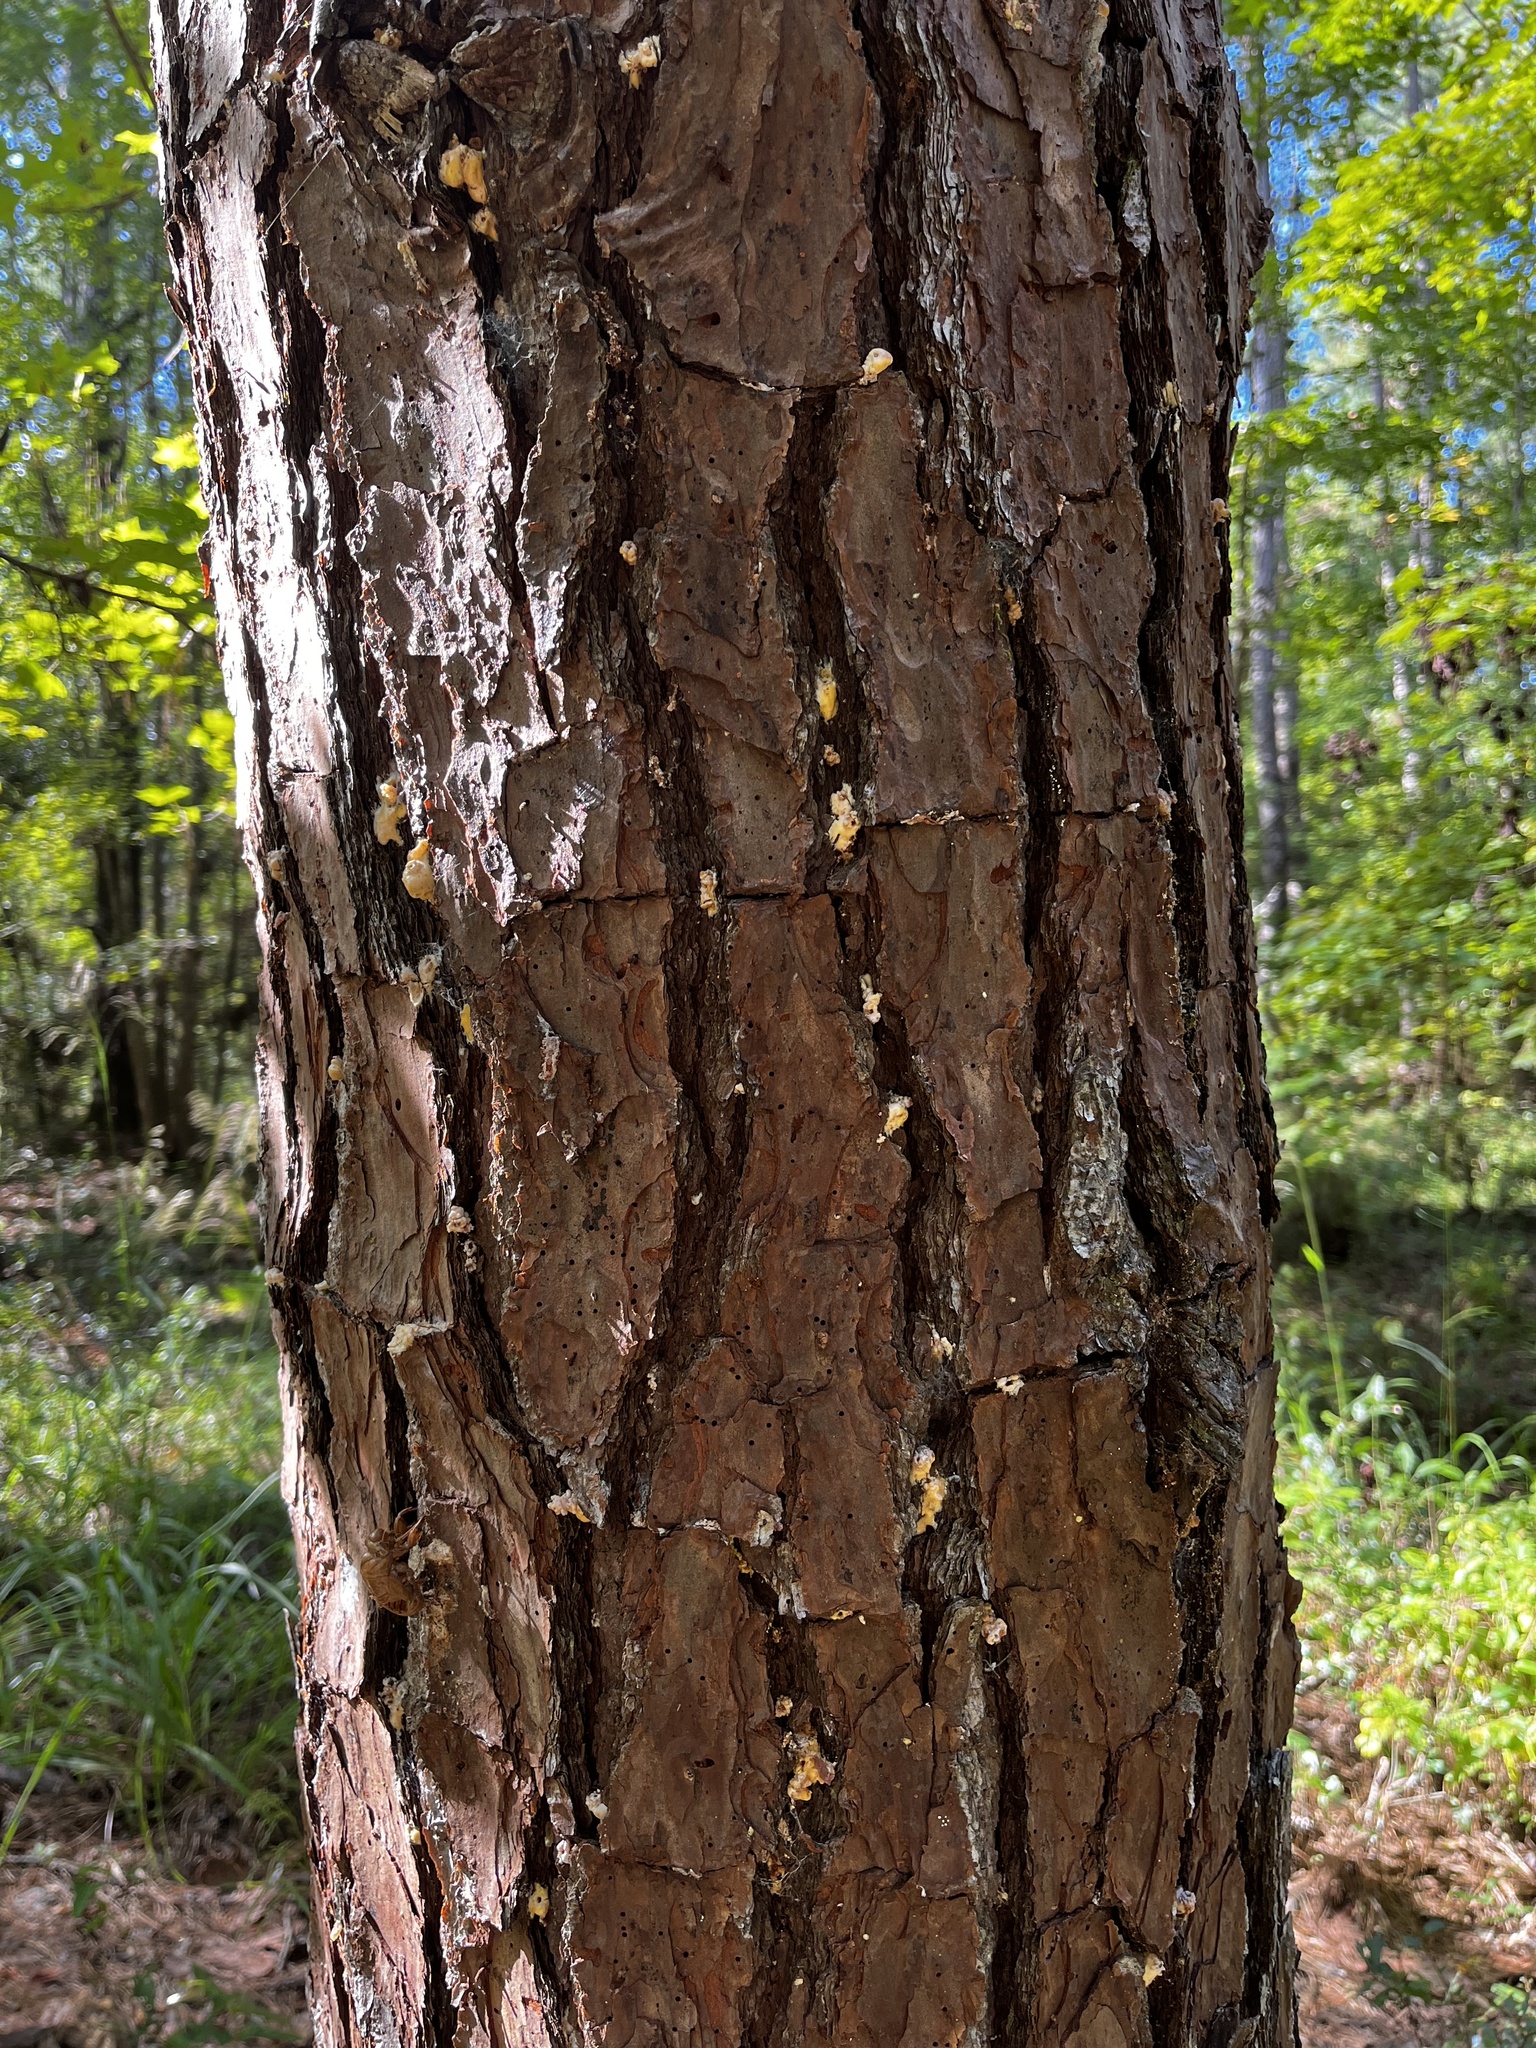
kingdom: Animalia
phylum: Arthropoda
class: Insecta
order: Coleoptera
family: Curculionidae
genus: Dendroctonus
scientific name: Dendroctonus frontalis
